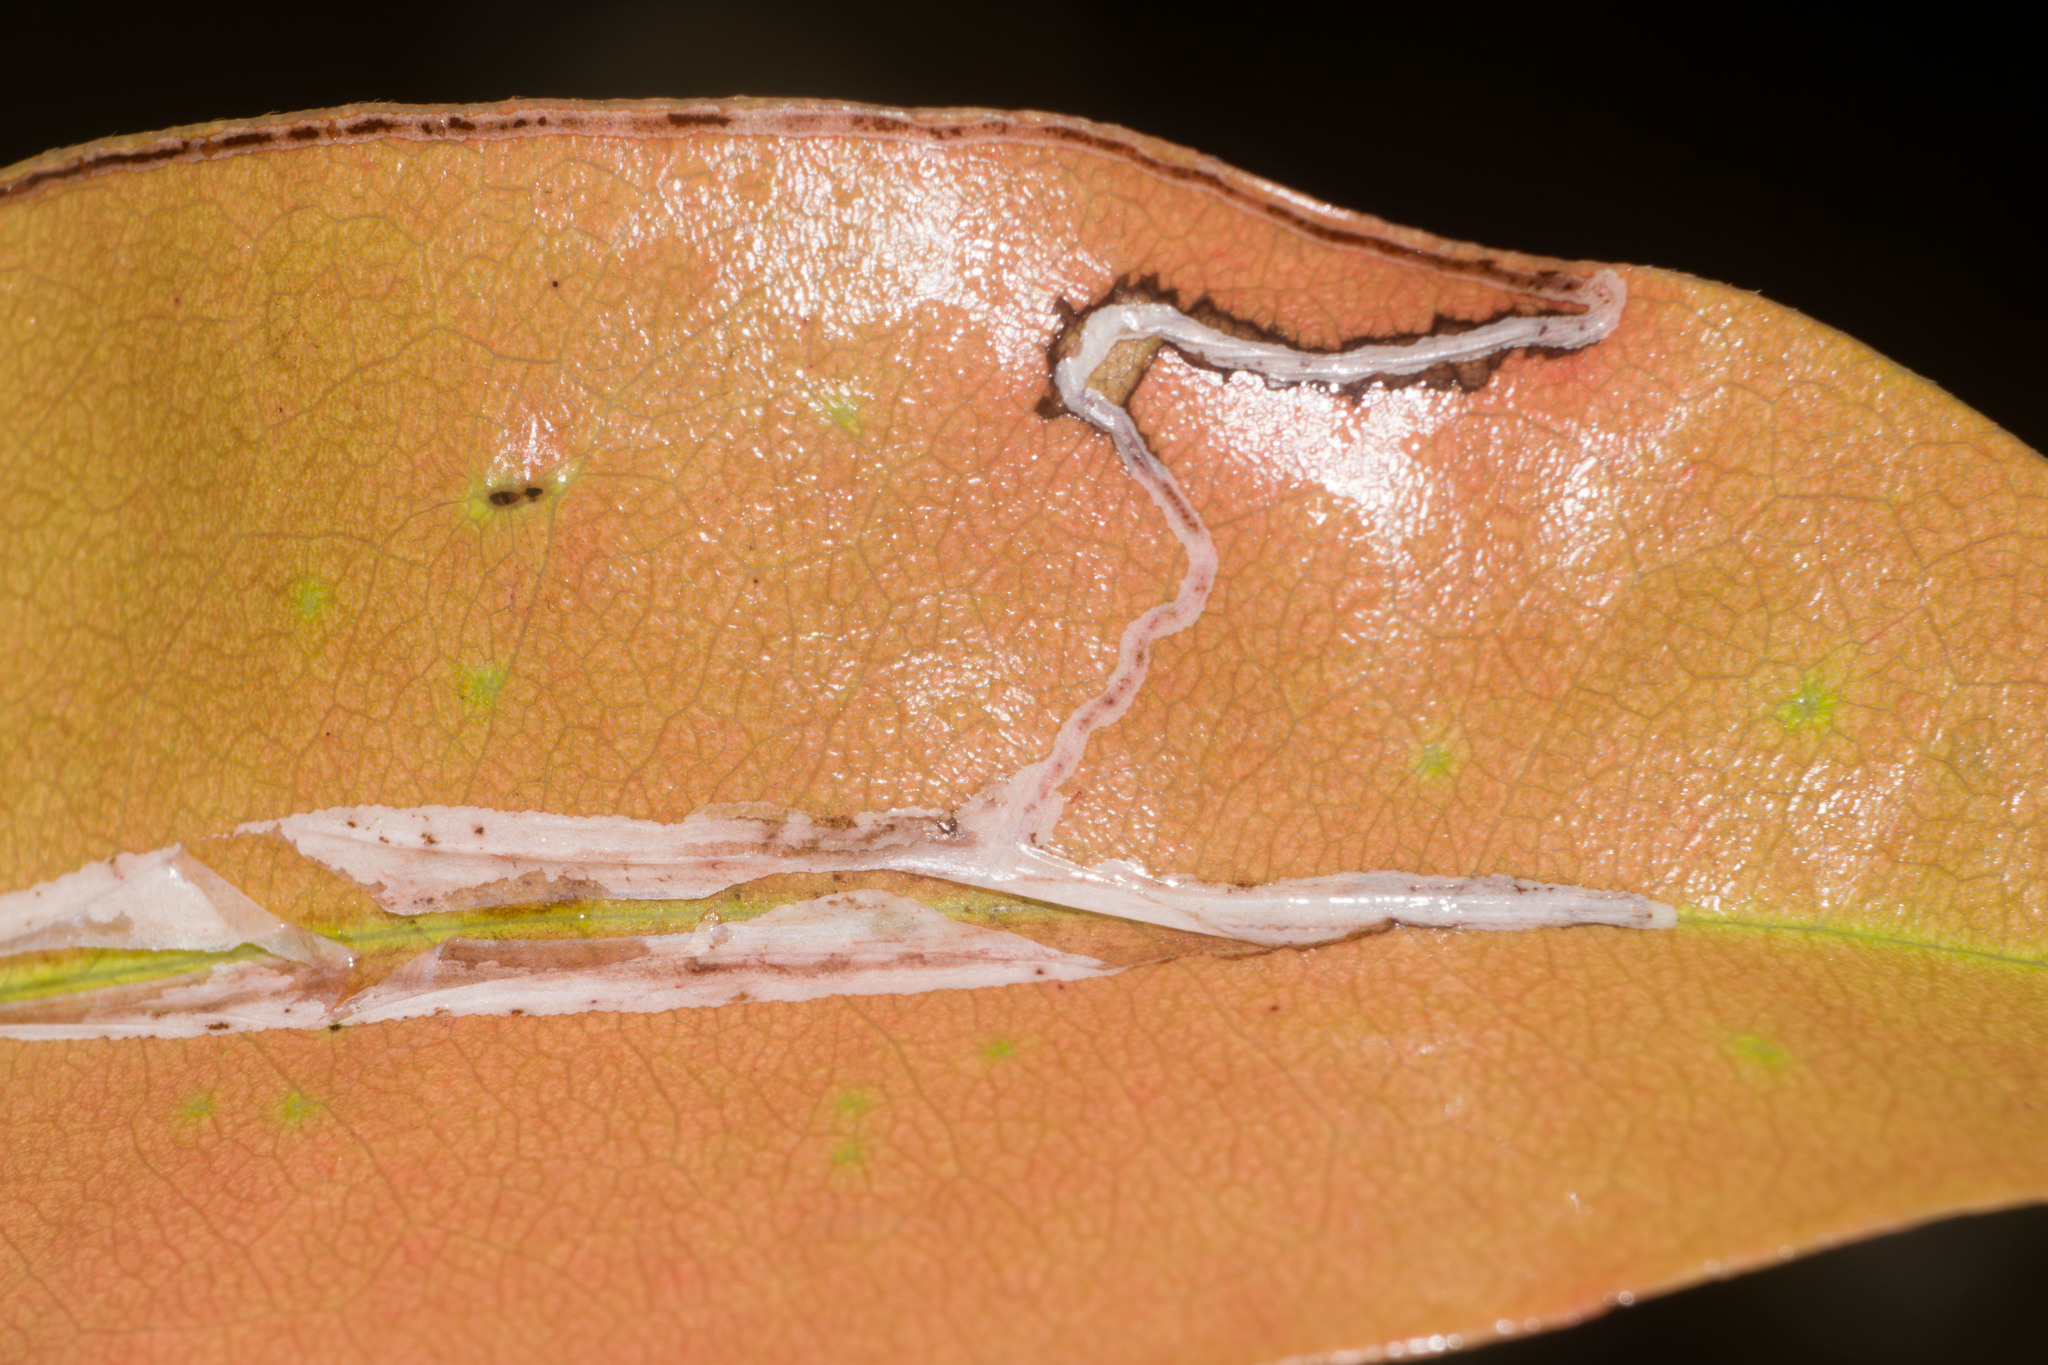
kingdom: Animalia
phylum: Arthropoda
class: Insecta
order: Lepidoptera
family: Gracillariidae
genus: Caloptilia
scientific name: Caloptilia mabaella
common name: Moth
